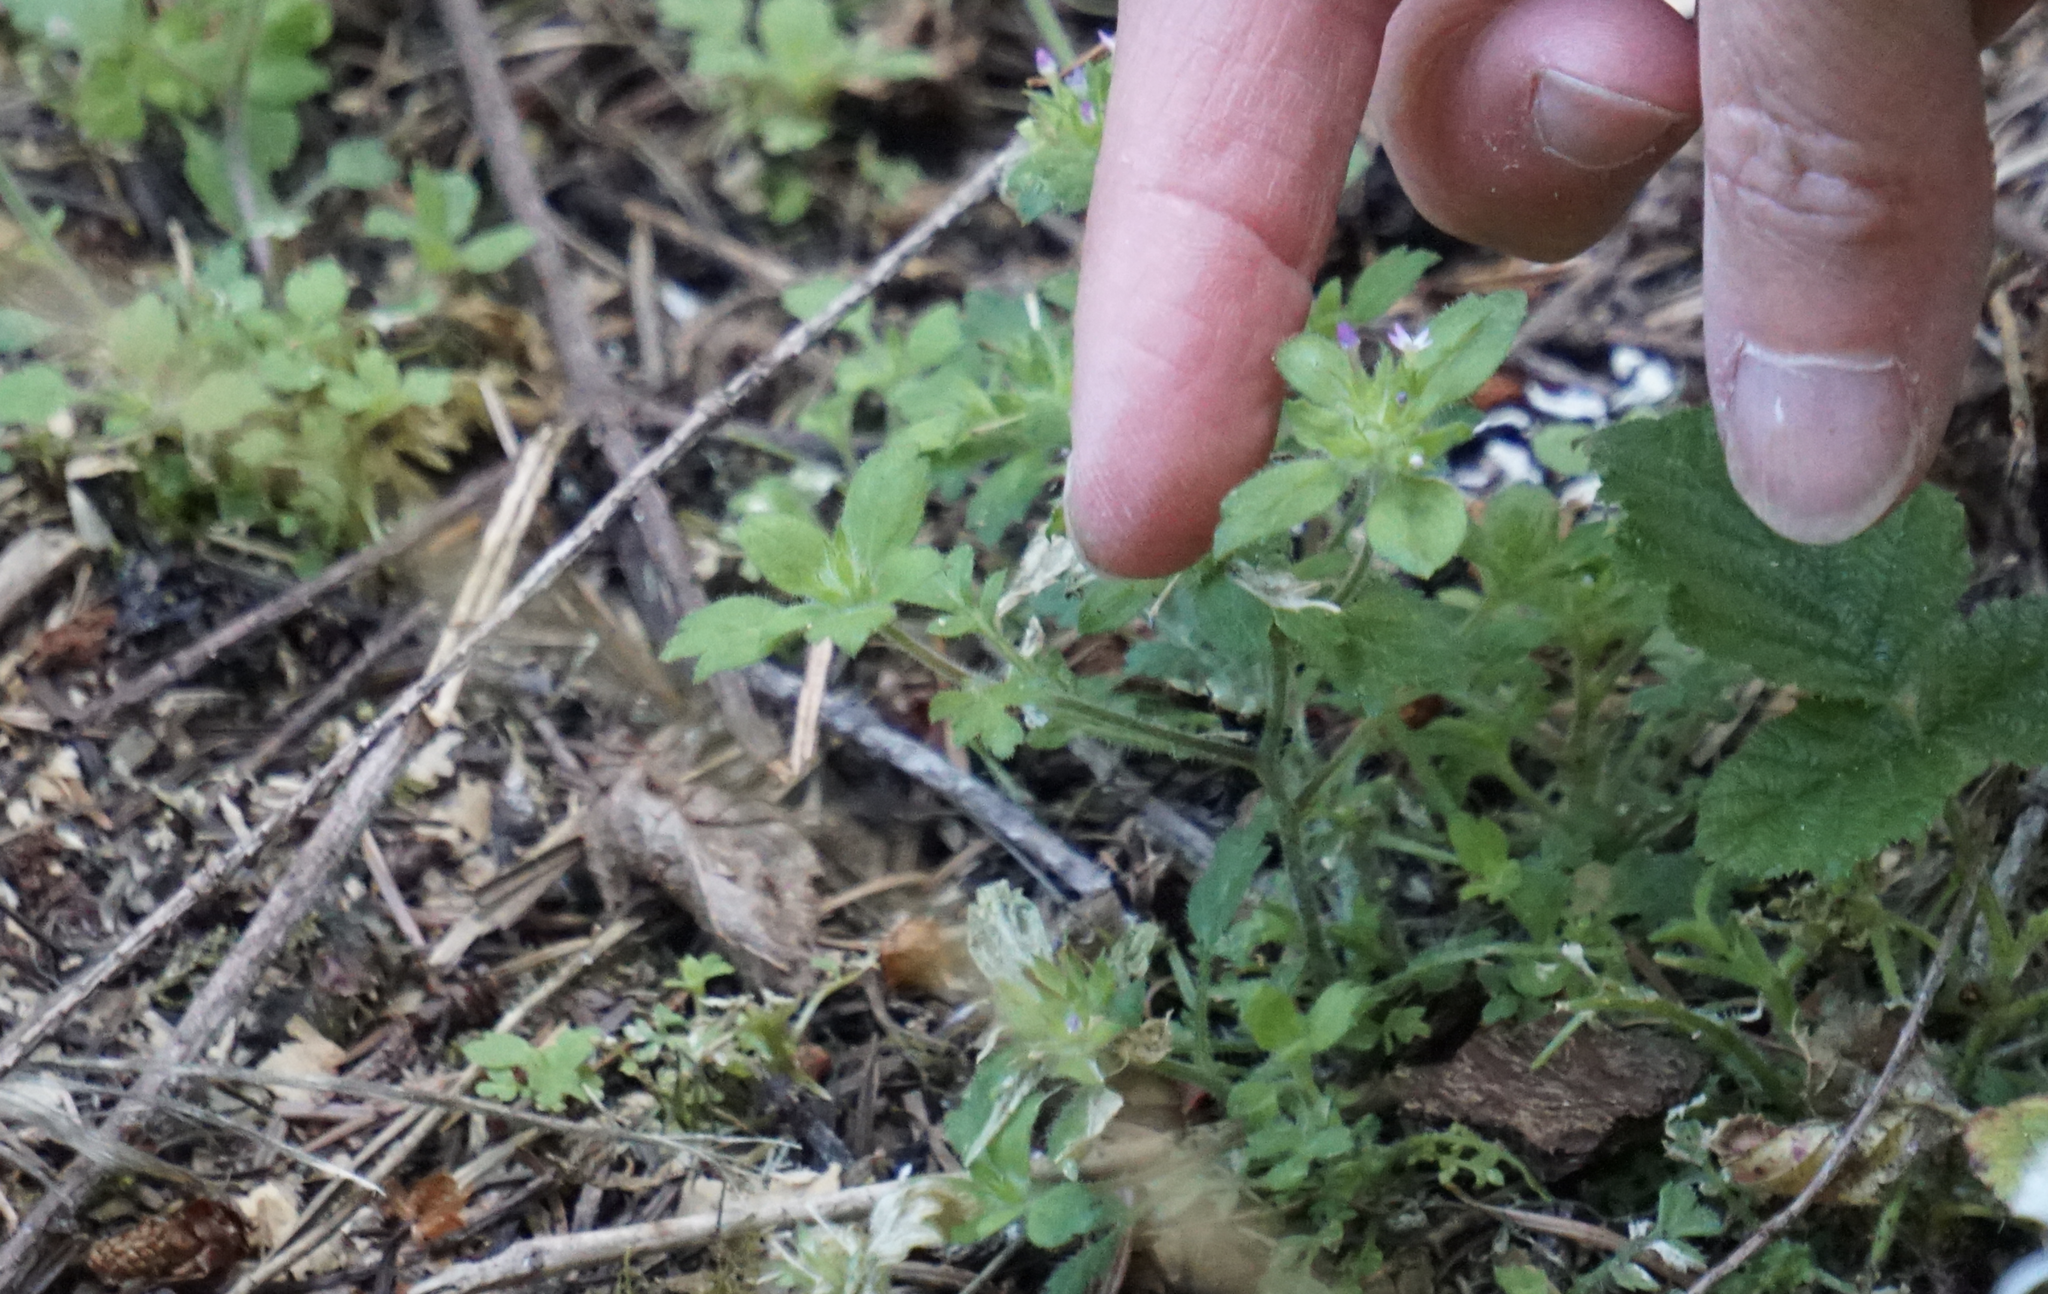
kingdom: Plantae
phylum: Tracheophyta
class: Magnoliopsida
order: Ericales
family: Polemoniaceae
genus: Collomia
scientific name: Collomia heterophylla
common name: Variable-leaved collomia
